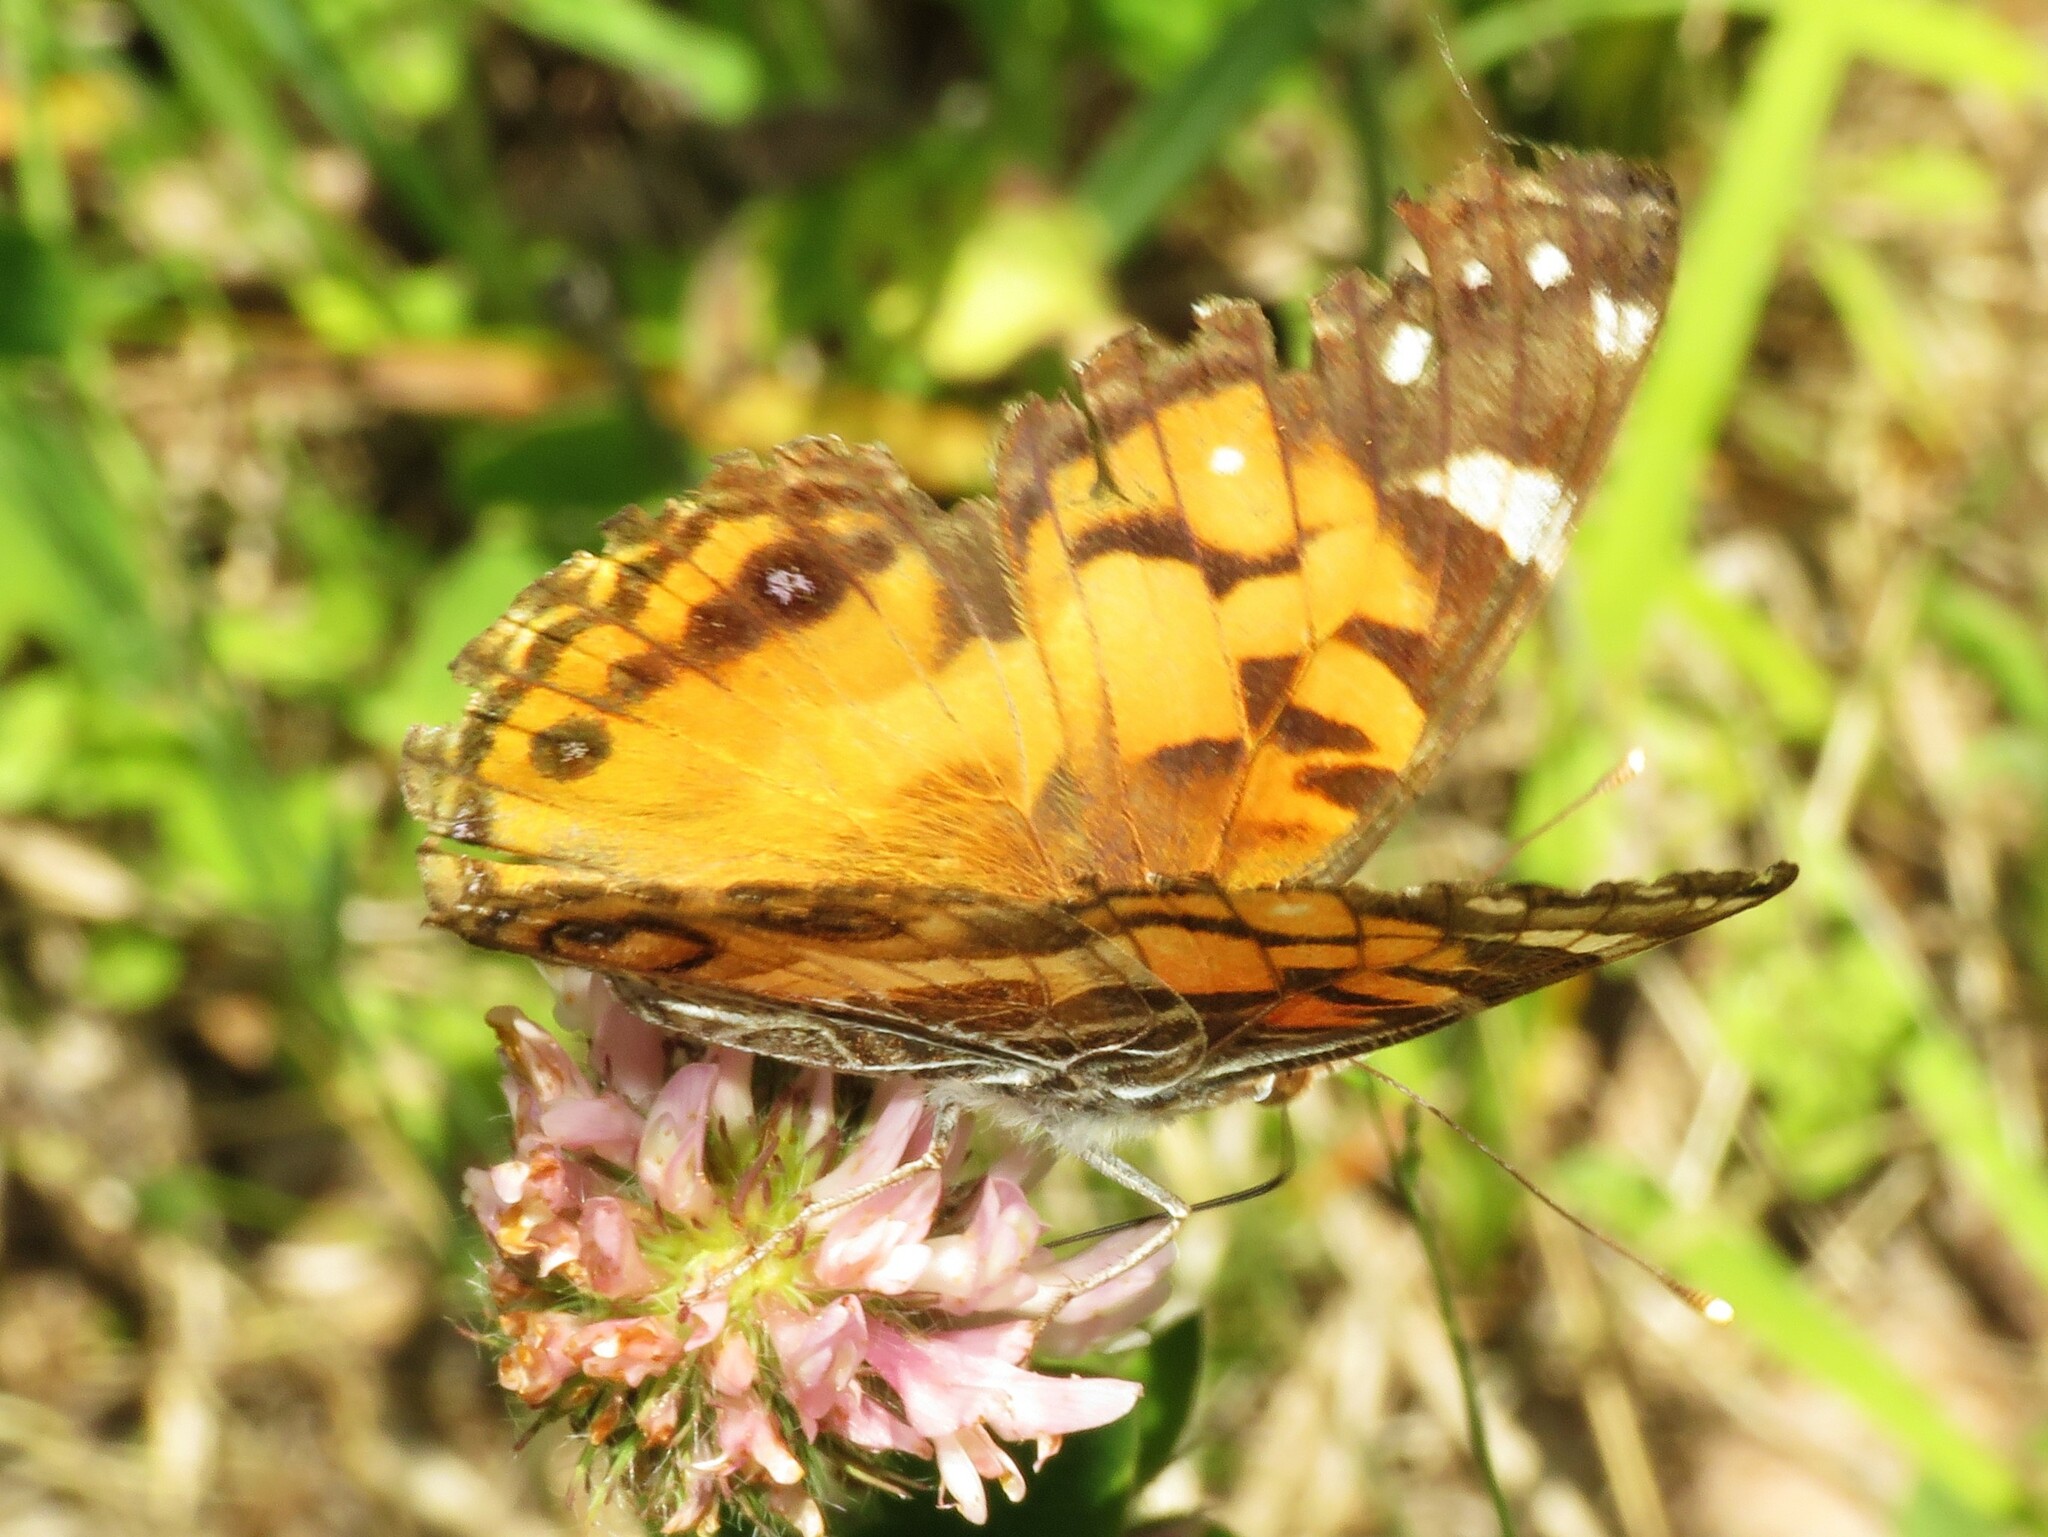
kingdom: Animalia
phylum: Arthropoda
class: Insecta
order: Lepidoptera
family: Nymphalidae
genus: Vanessa
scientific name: Vanessa virginiensis
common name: American lady
